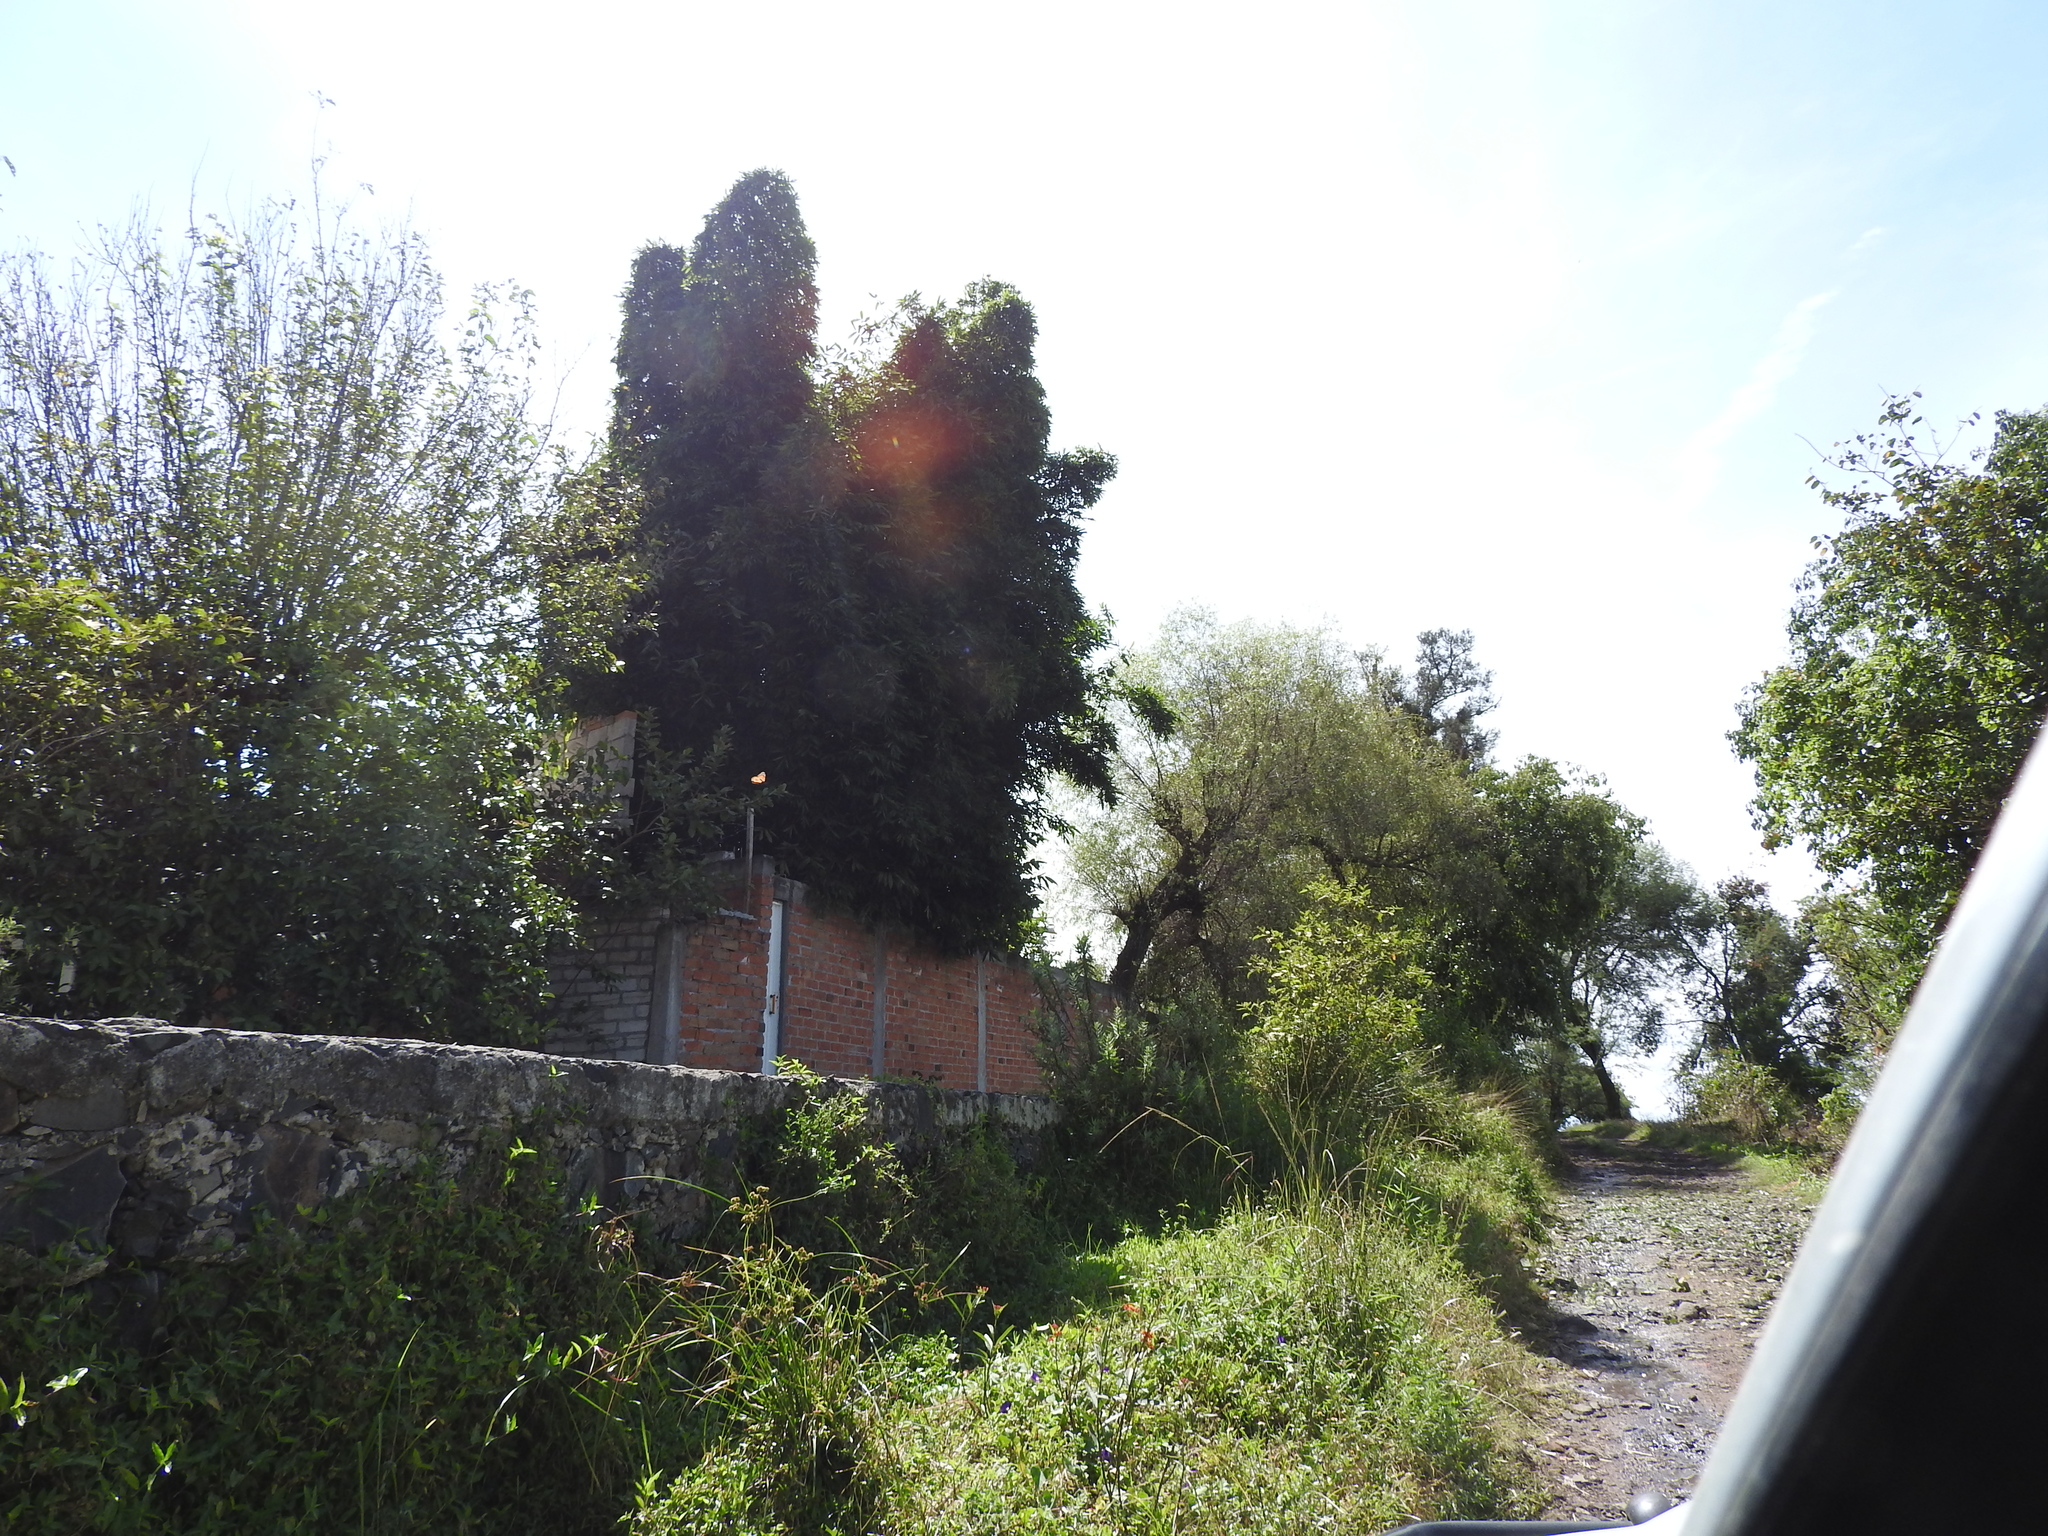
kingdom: Animalia
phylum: Arthropoda
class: Insecta
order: Lepidoptera
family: Nymphalidae
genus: Danaus
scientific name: Danaus plexippus
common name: Monarch
